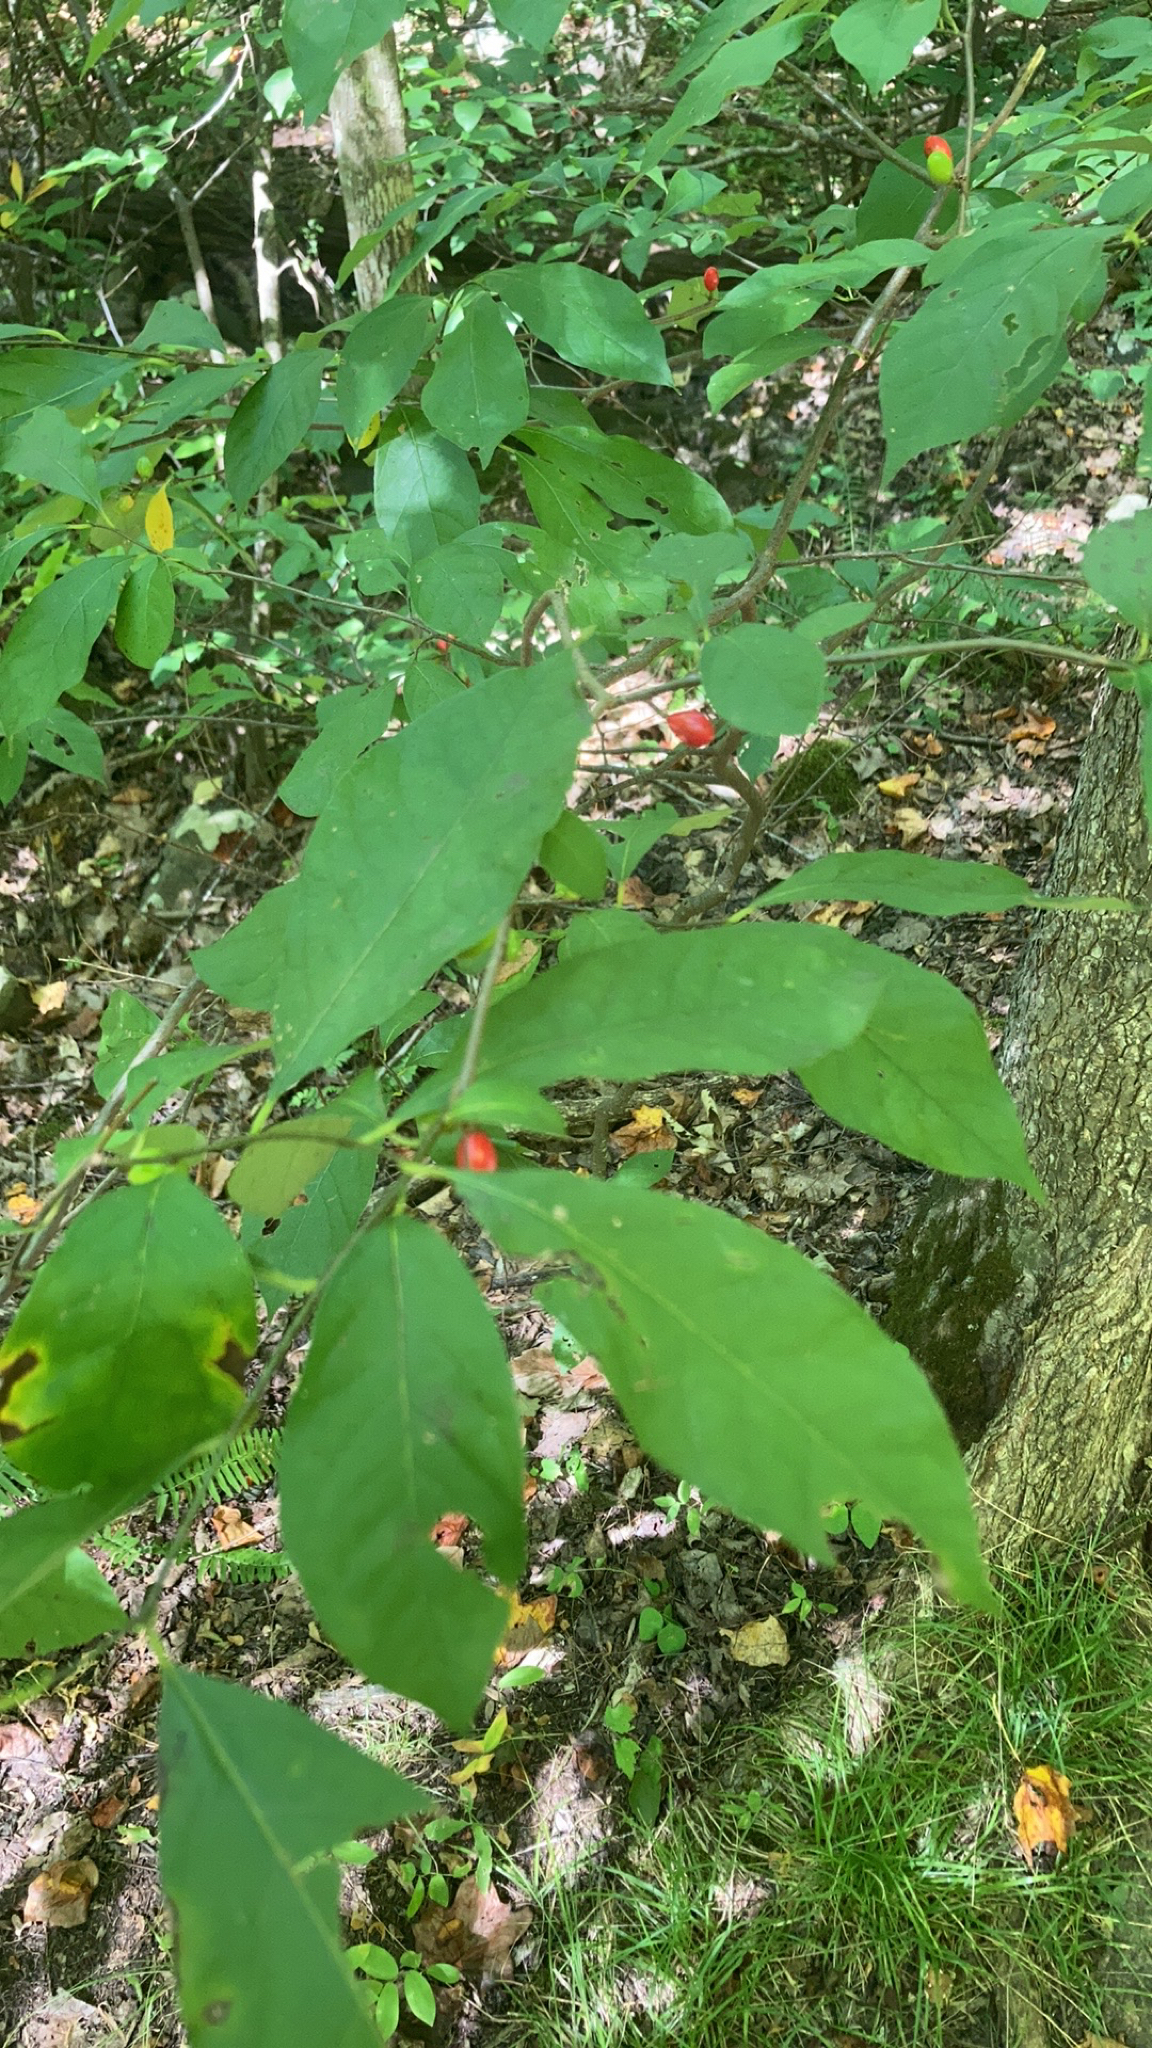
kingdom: Plantae
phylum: Tracheophyta
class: Magnoliopsida
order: Laurales
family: Lauraceae
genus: Lindera
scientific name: Lindera benzoin
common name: Spicebush
